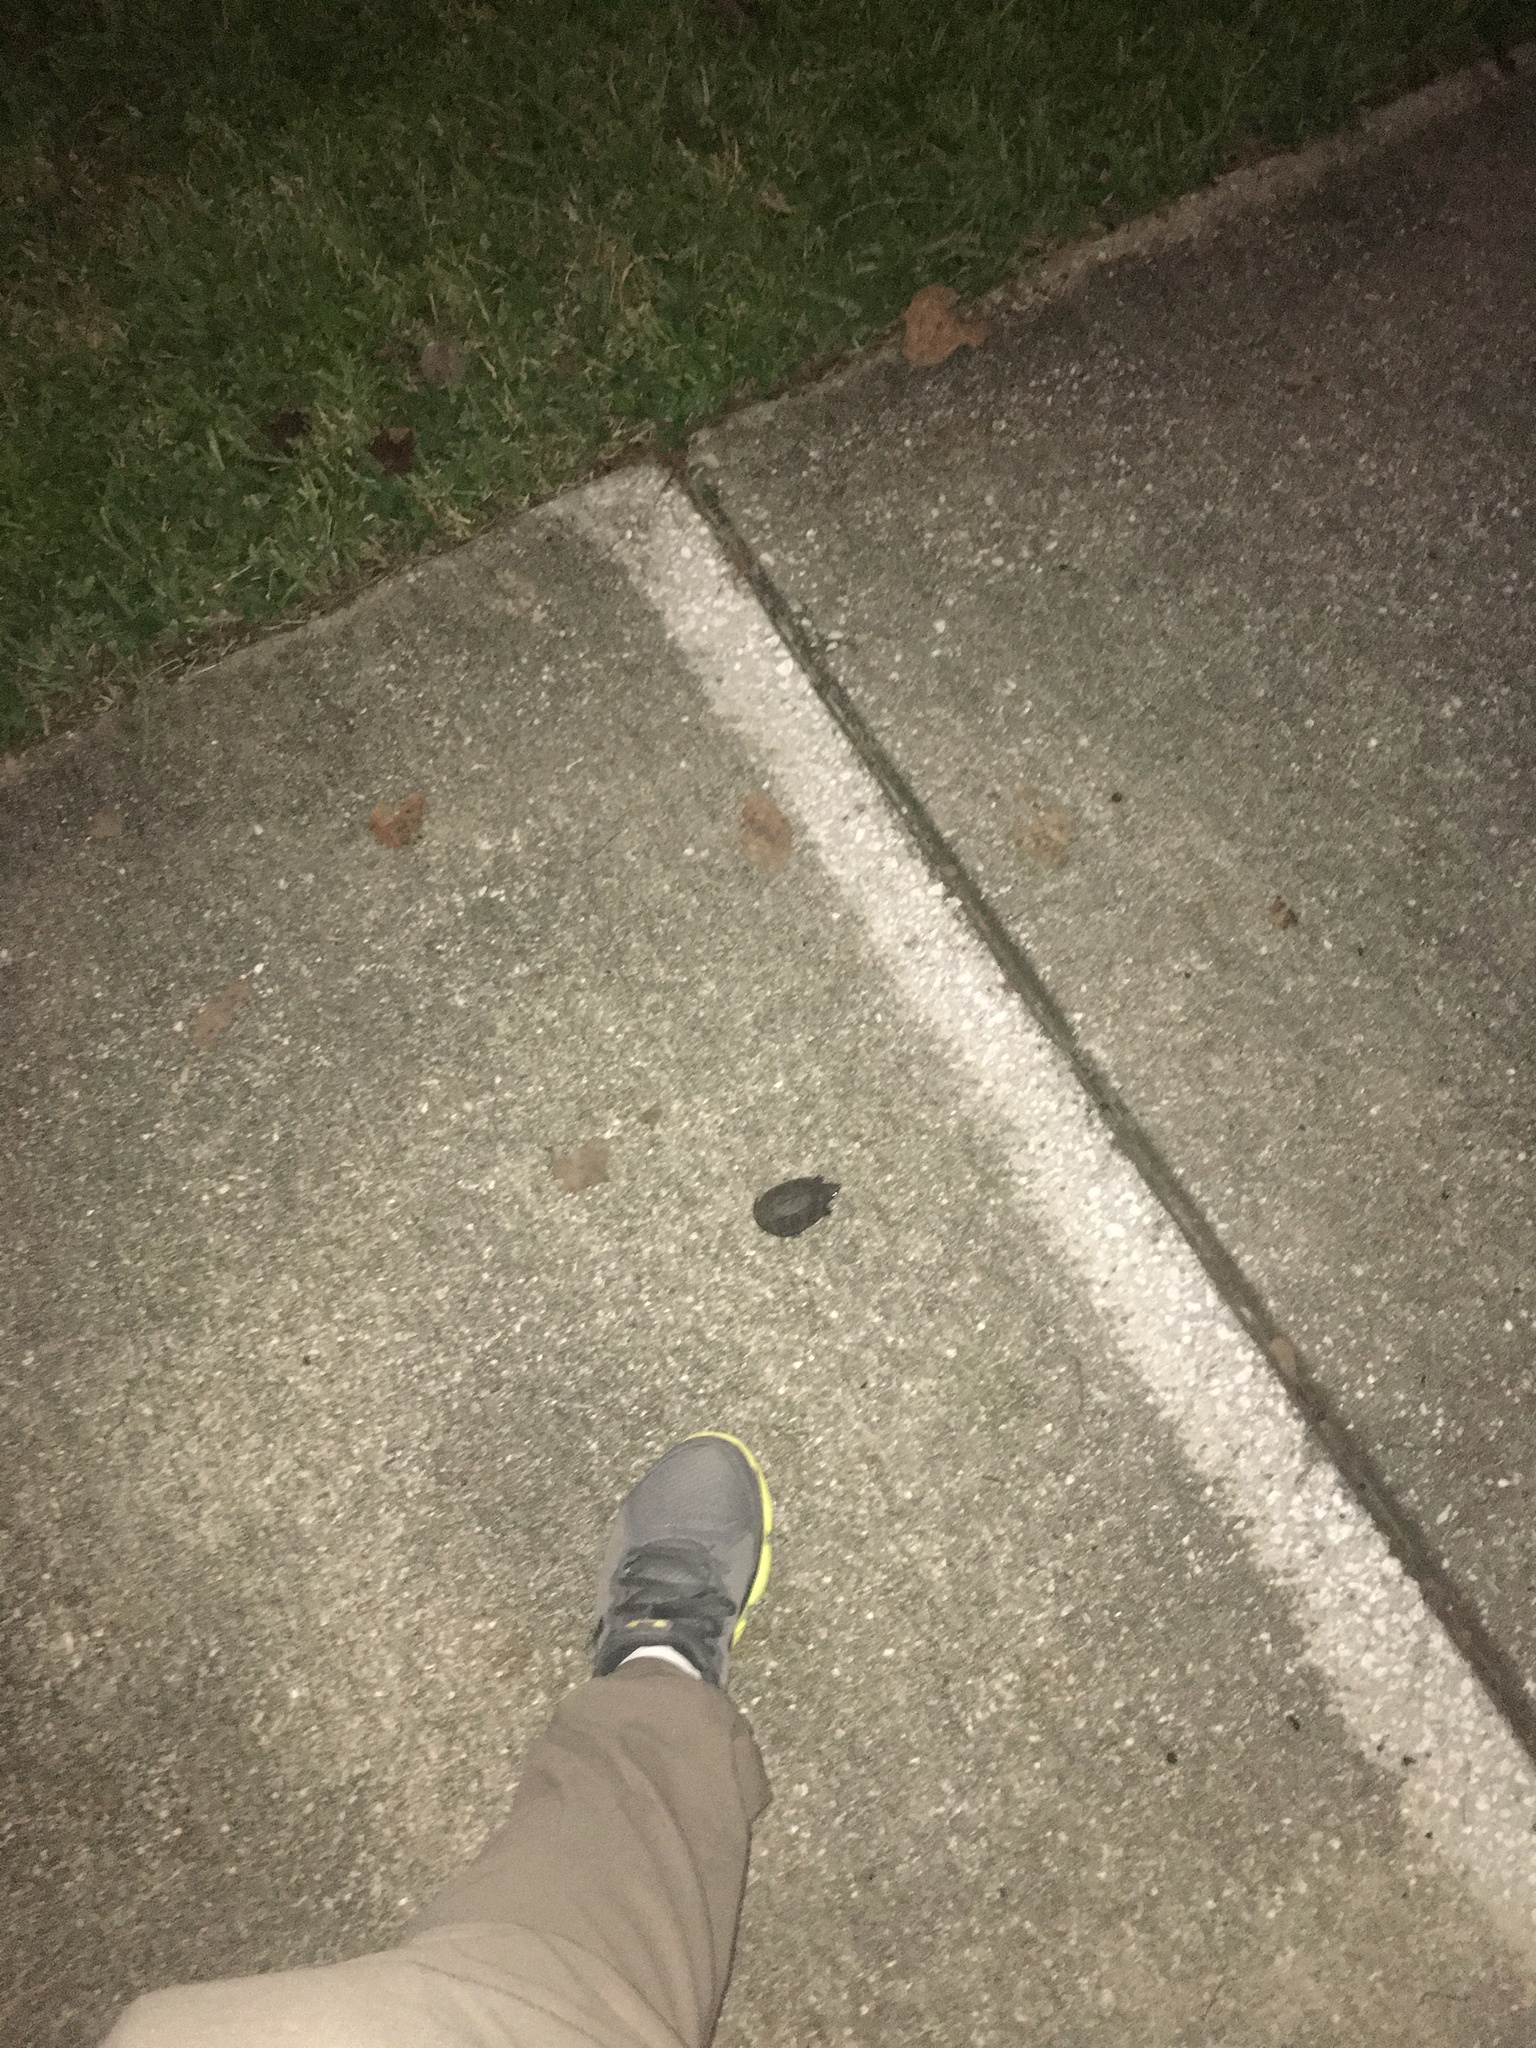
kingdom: Animalia
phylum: Chordata
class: Testudines
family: Kinosternidae
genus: Sternotherus
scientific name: Sternotherus odoratus
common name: Common musk turtle
